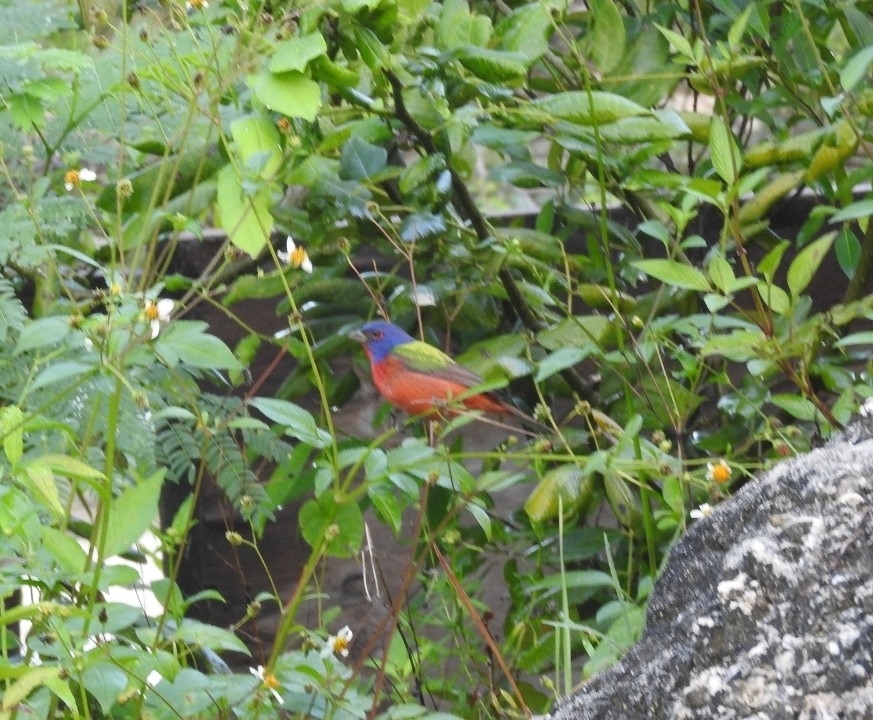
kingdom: Animalia
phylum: Chordata
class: Aves
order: Passeriformes
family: Cardinalidae
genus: Passerina
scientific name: Passerina ciris
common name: Painted bunting
